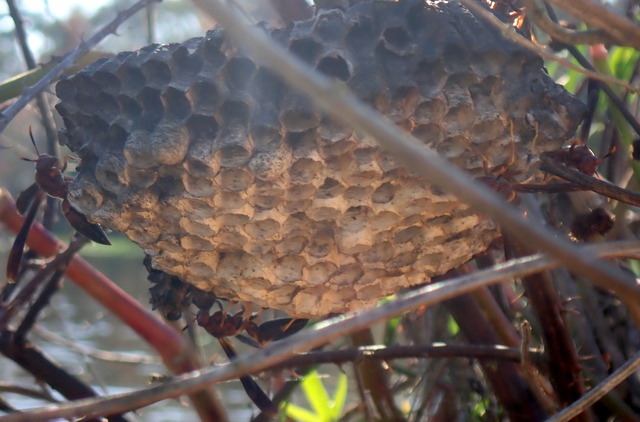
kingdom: Animalia
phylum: Arthropoda
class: Insecta
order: Hymenoptera
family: Eumenidae
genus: Polistes
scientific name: Polistes annularis
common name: Ringed paper wasp
